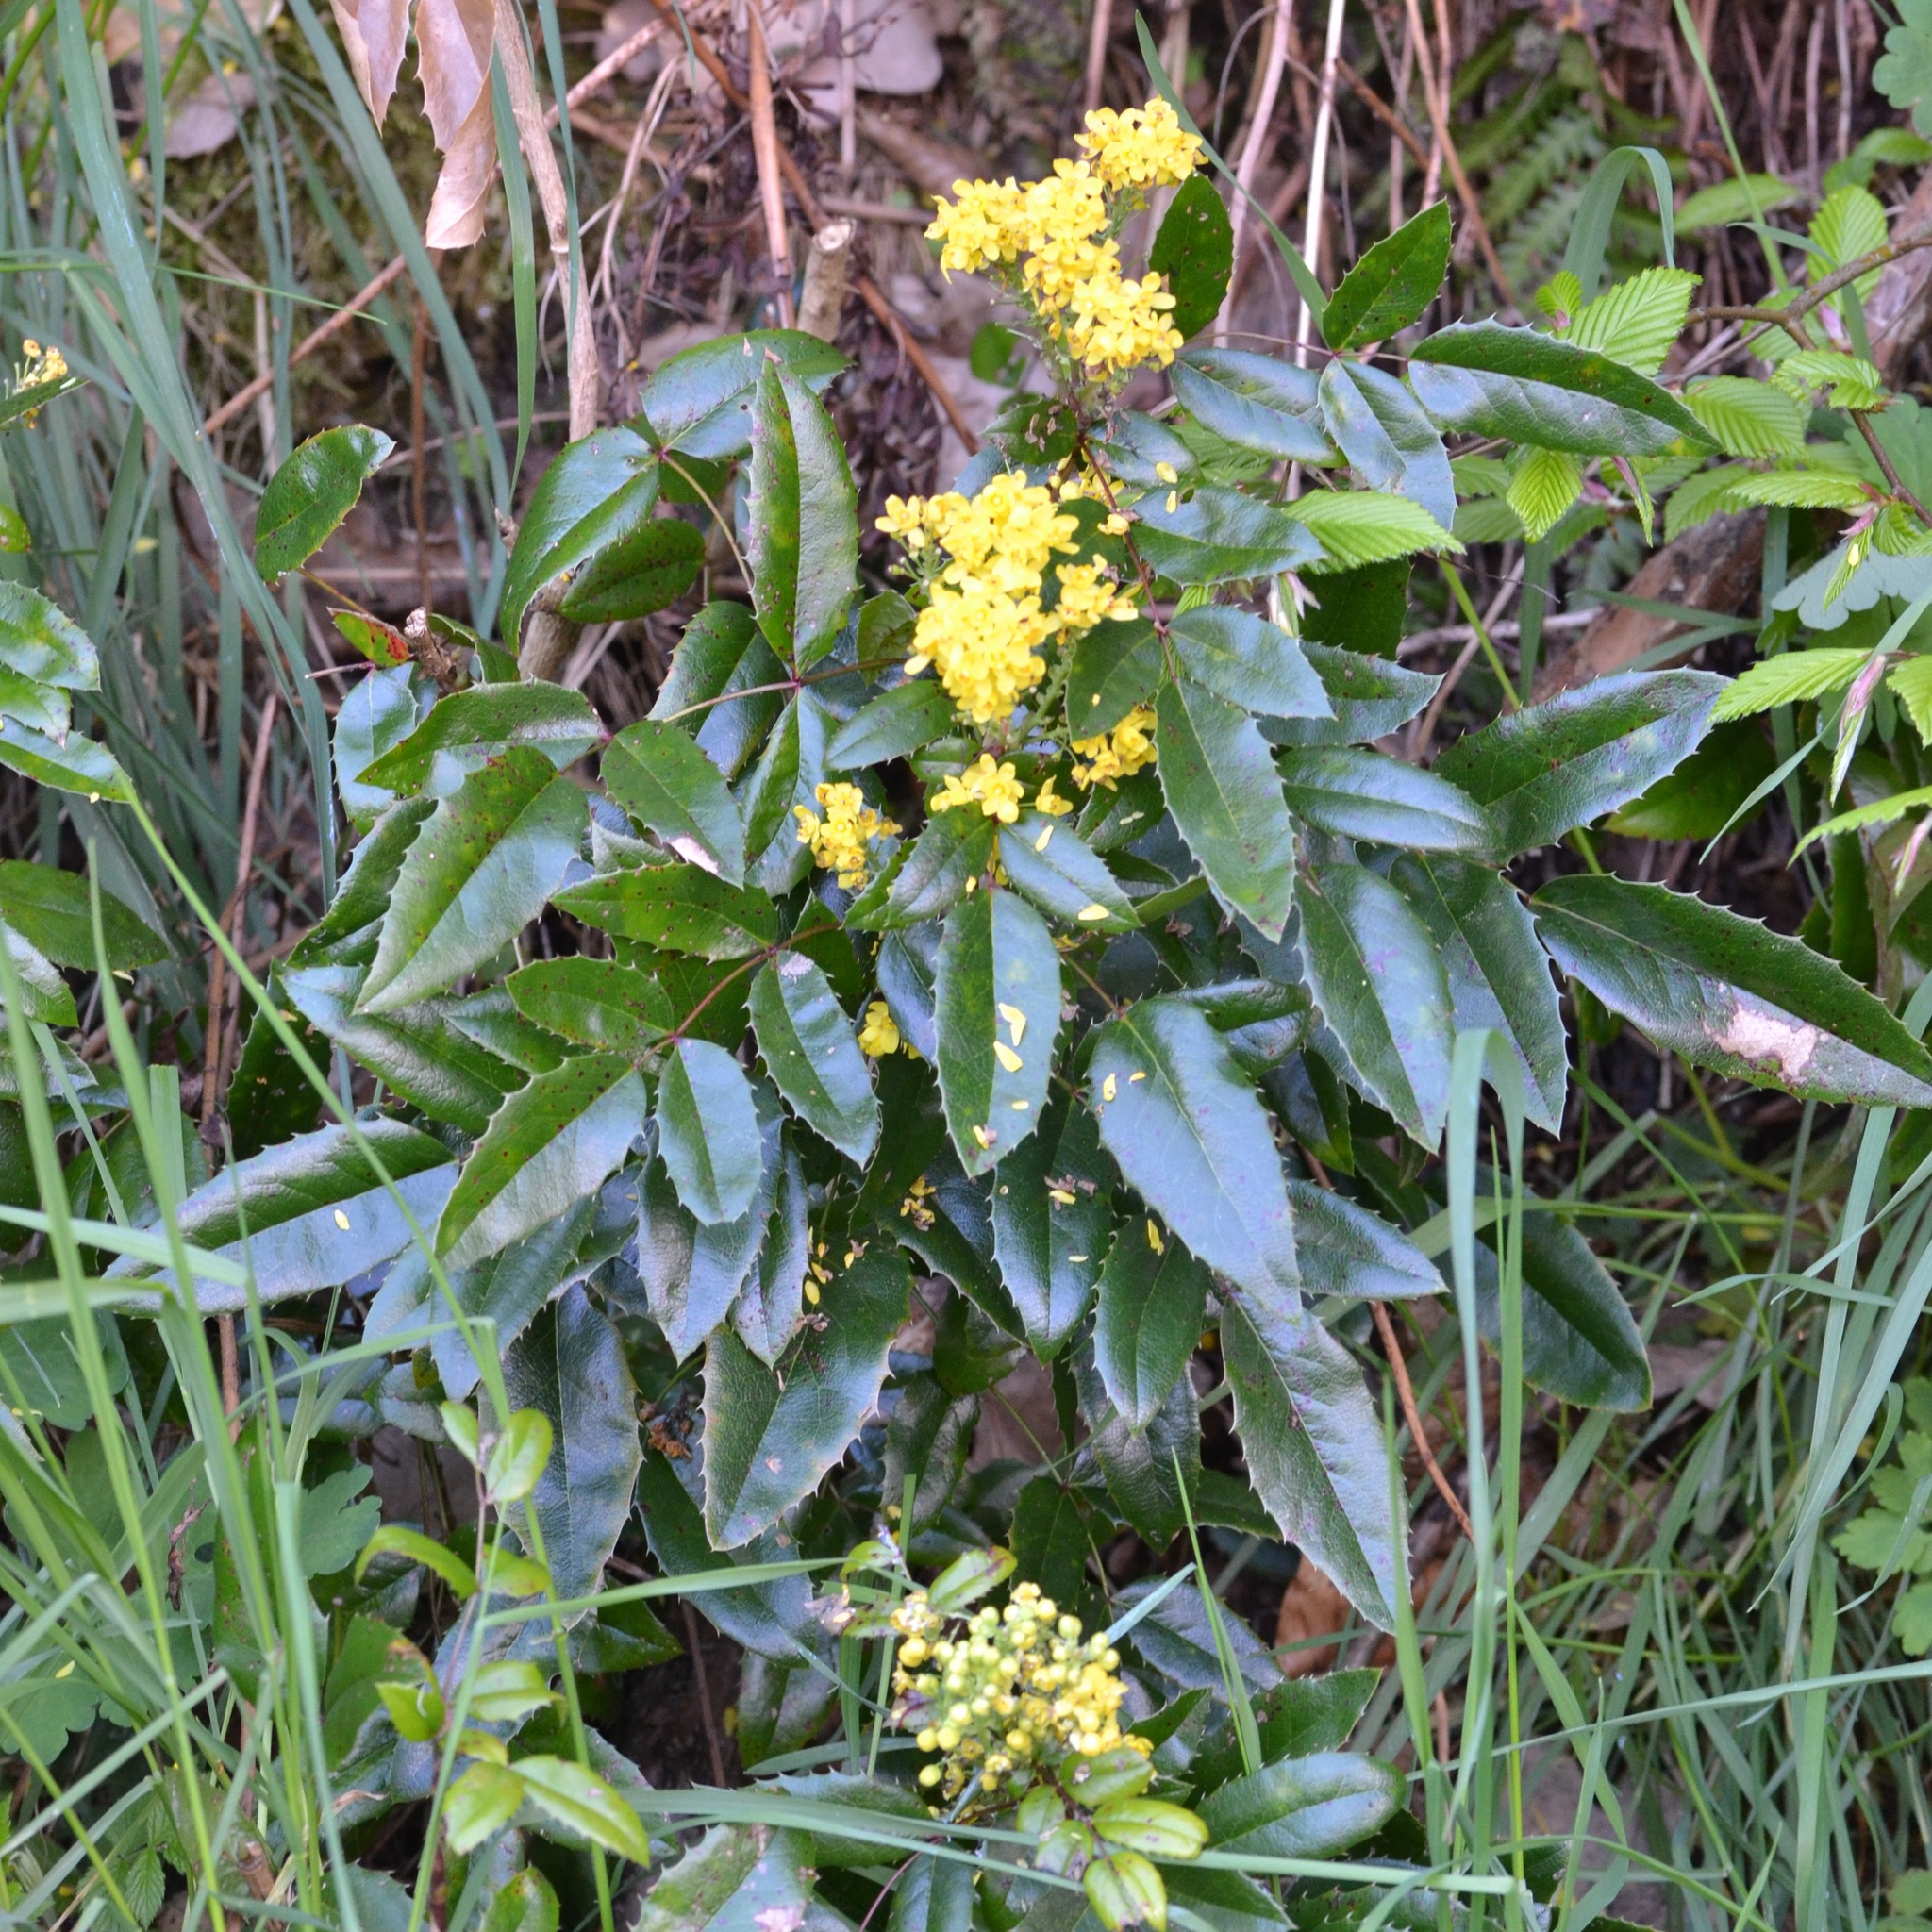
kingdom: Plantae
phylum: Tracheophyta
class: Magnoliopsida
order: Ranunculales
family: Berberidaceae
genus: Mahonia
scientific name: Mahonia aquifolium
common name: Oregon-grape
